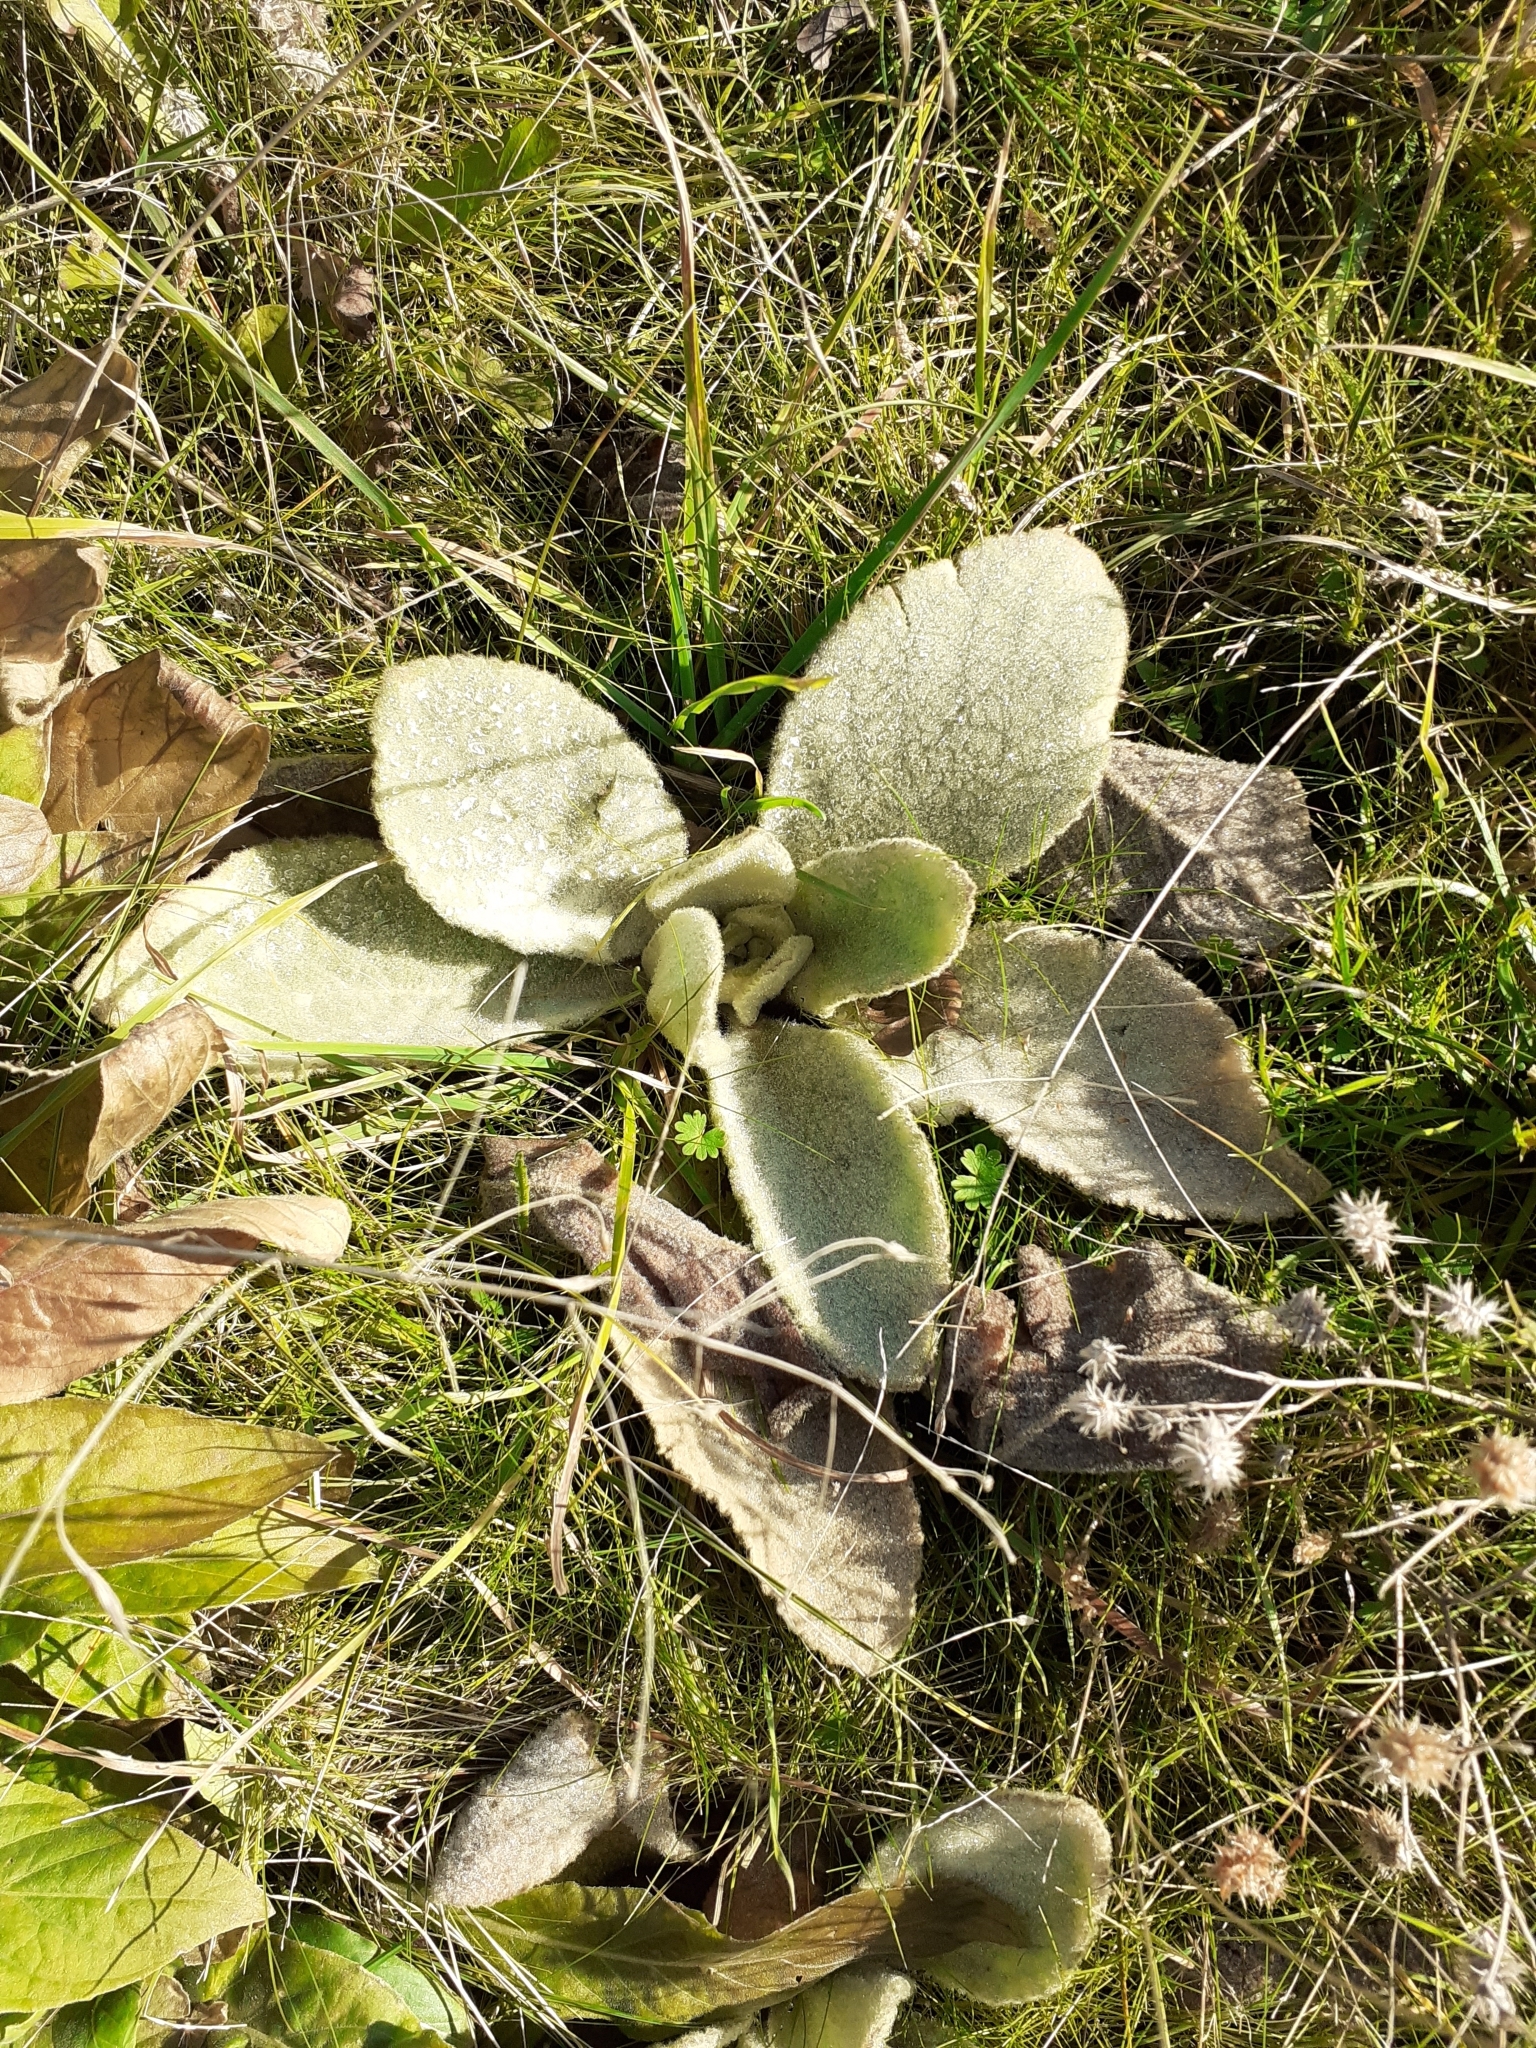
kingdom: Plantae
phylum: Tracheophyta
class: Magnoliopsida
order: Lamiales
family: Scrophulariaceae
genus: Verbascum
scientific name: Verbascum thapsus
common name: Common mullein
